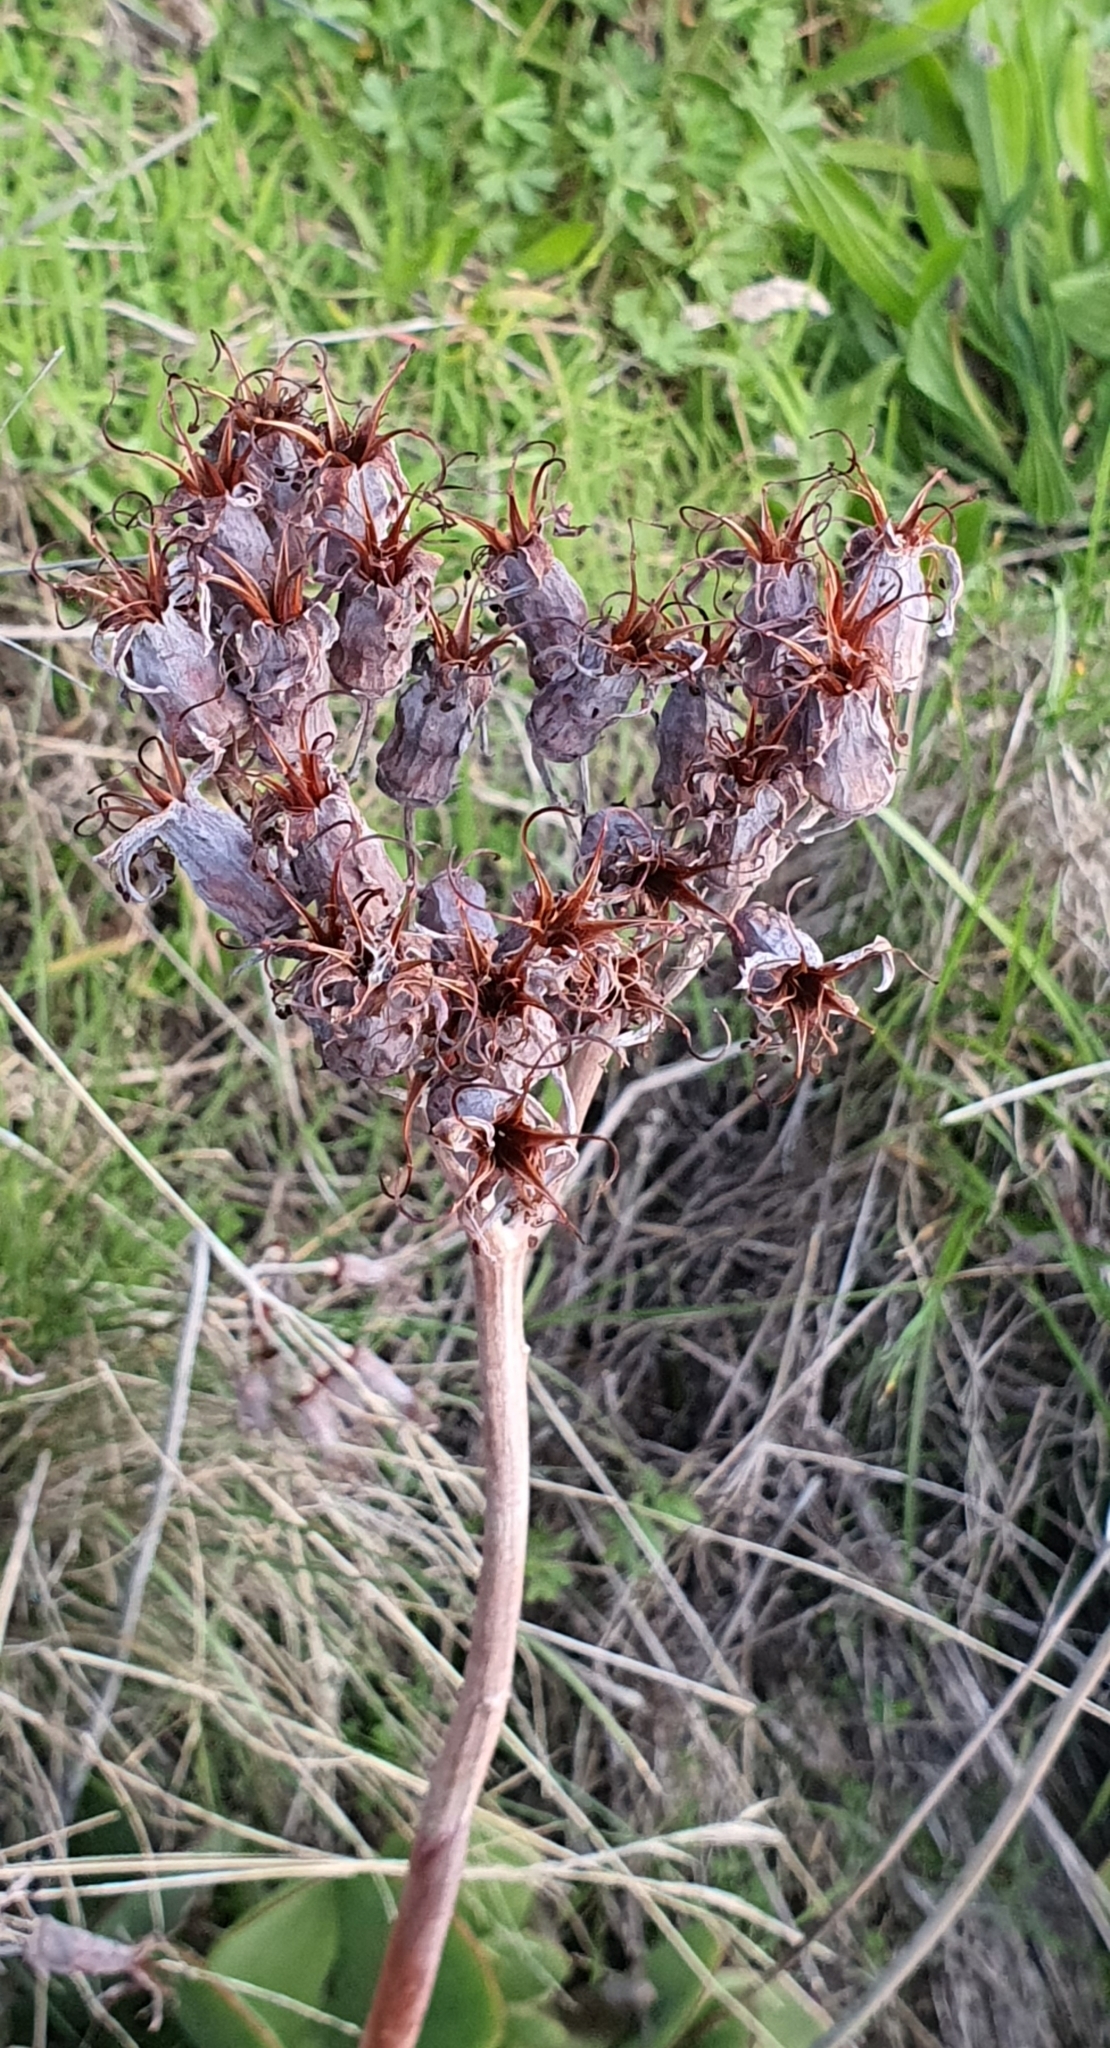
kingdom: Plantae
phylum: Tracheophyta
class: Magnoliopsida
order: Saxifragales
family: Crassulaceae
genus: Cotyledon
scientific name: Cotyledon orbiculata
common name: Pig's ear
